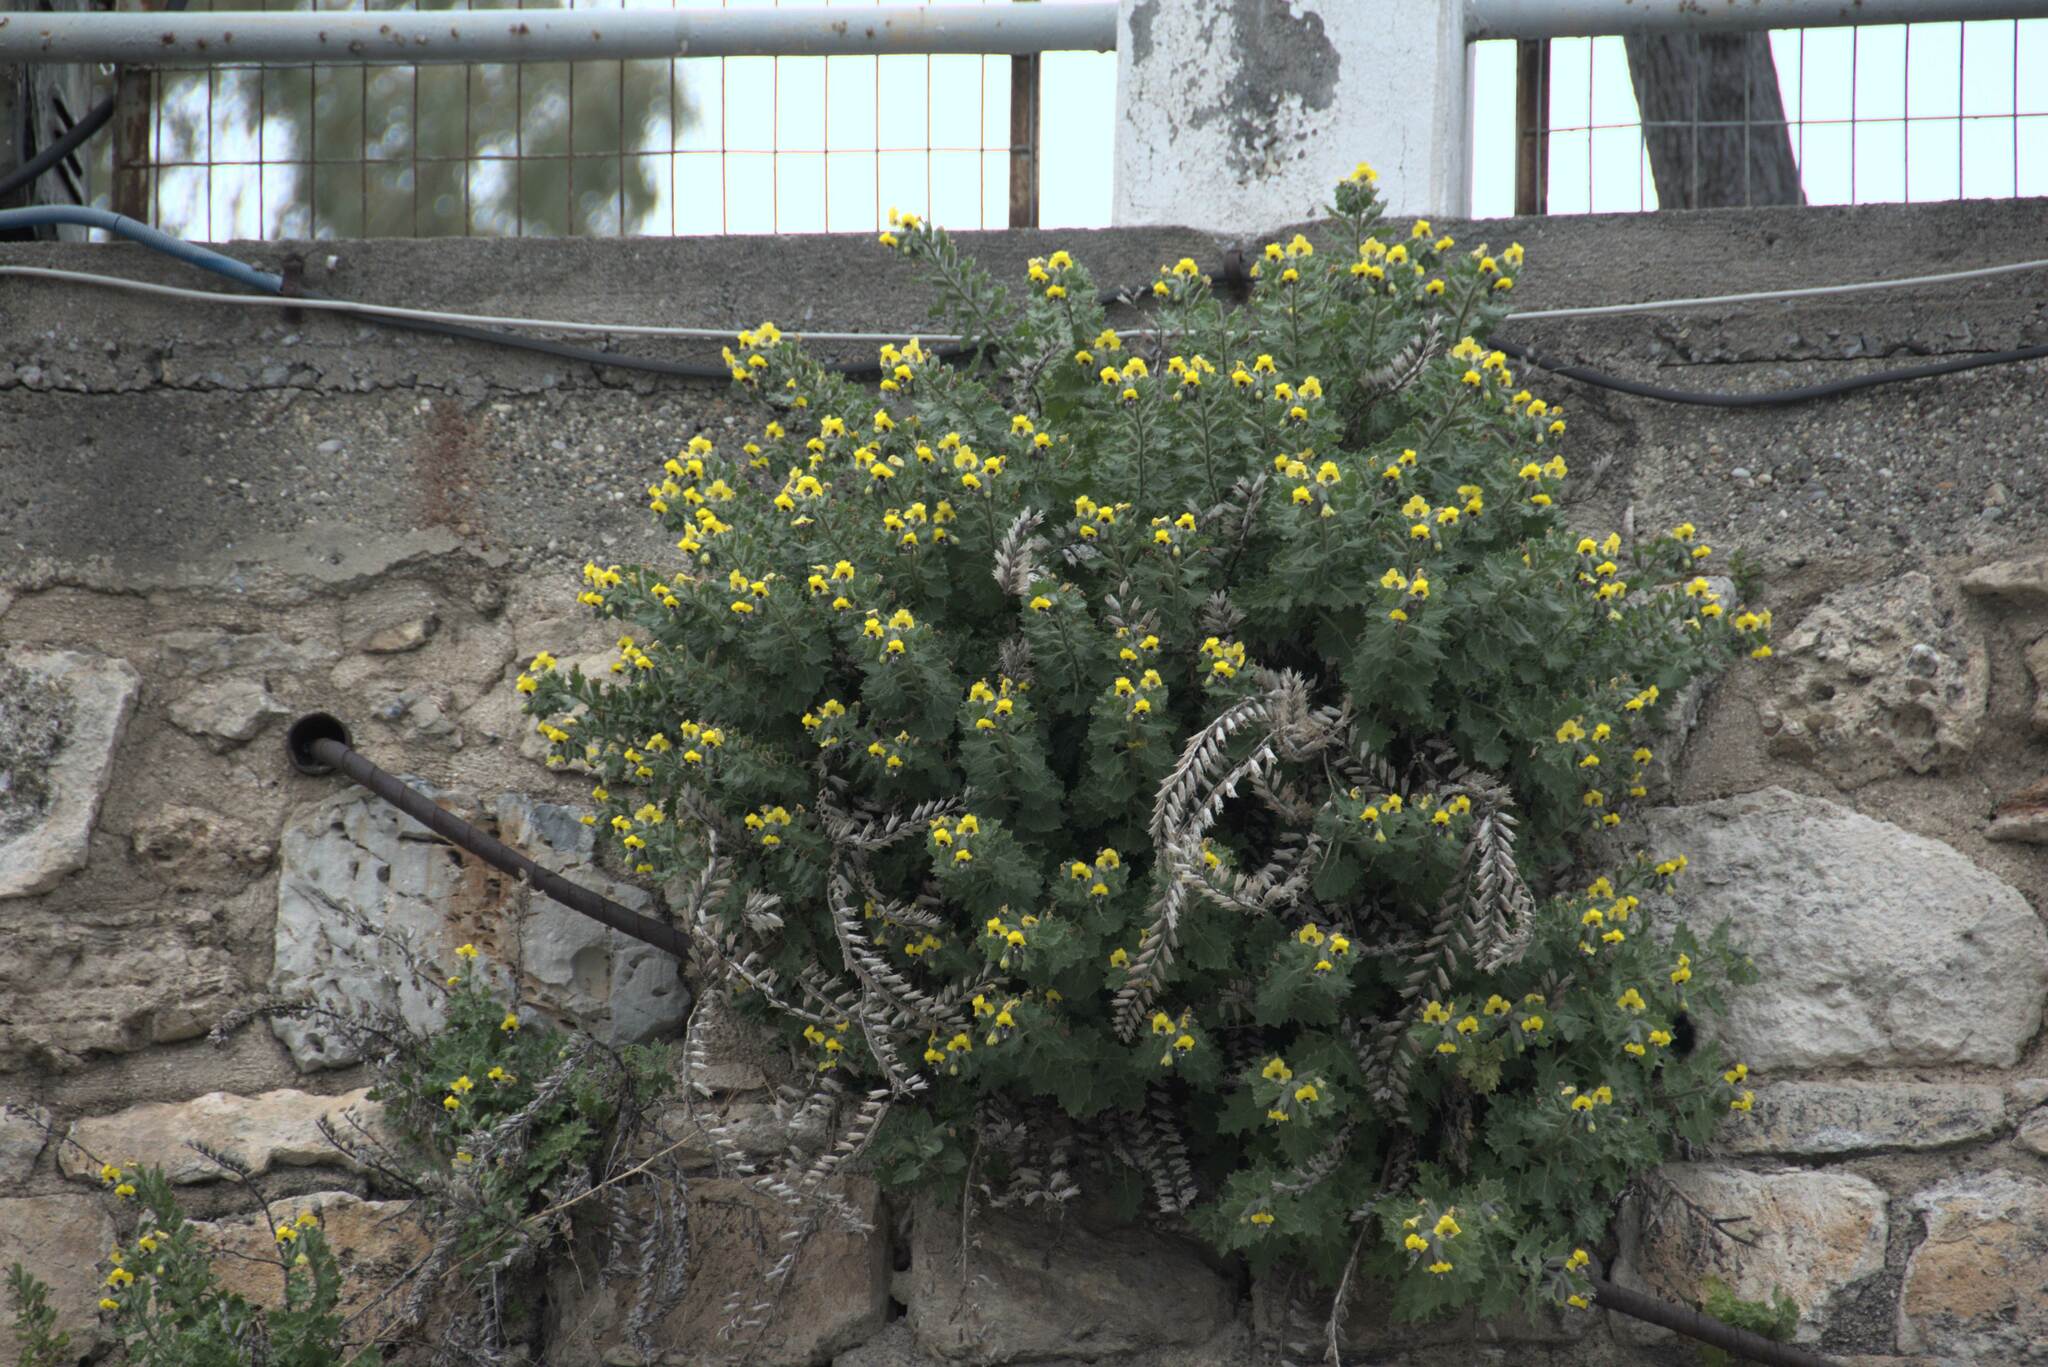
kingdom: Plantae
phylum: Tracheophyta
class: Magnoliopsida
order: Solanales
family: Solanaceae
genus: Hyoscyamus
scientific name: Hyoscyamus aureus
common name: Golden henbane
